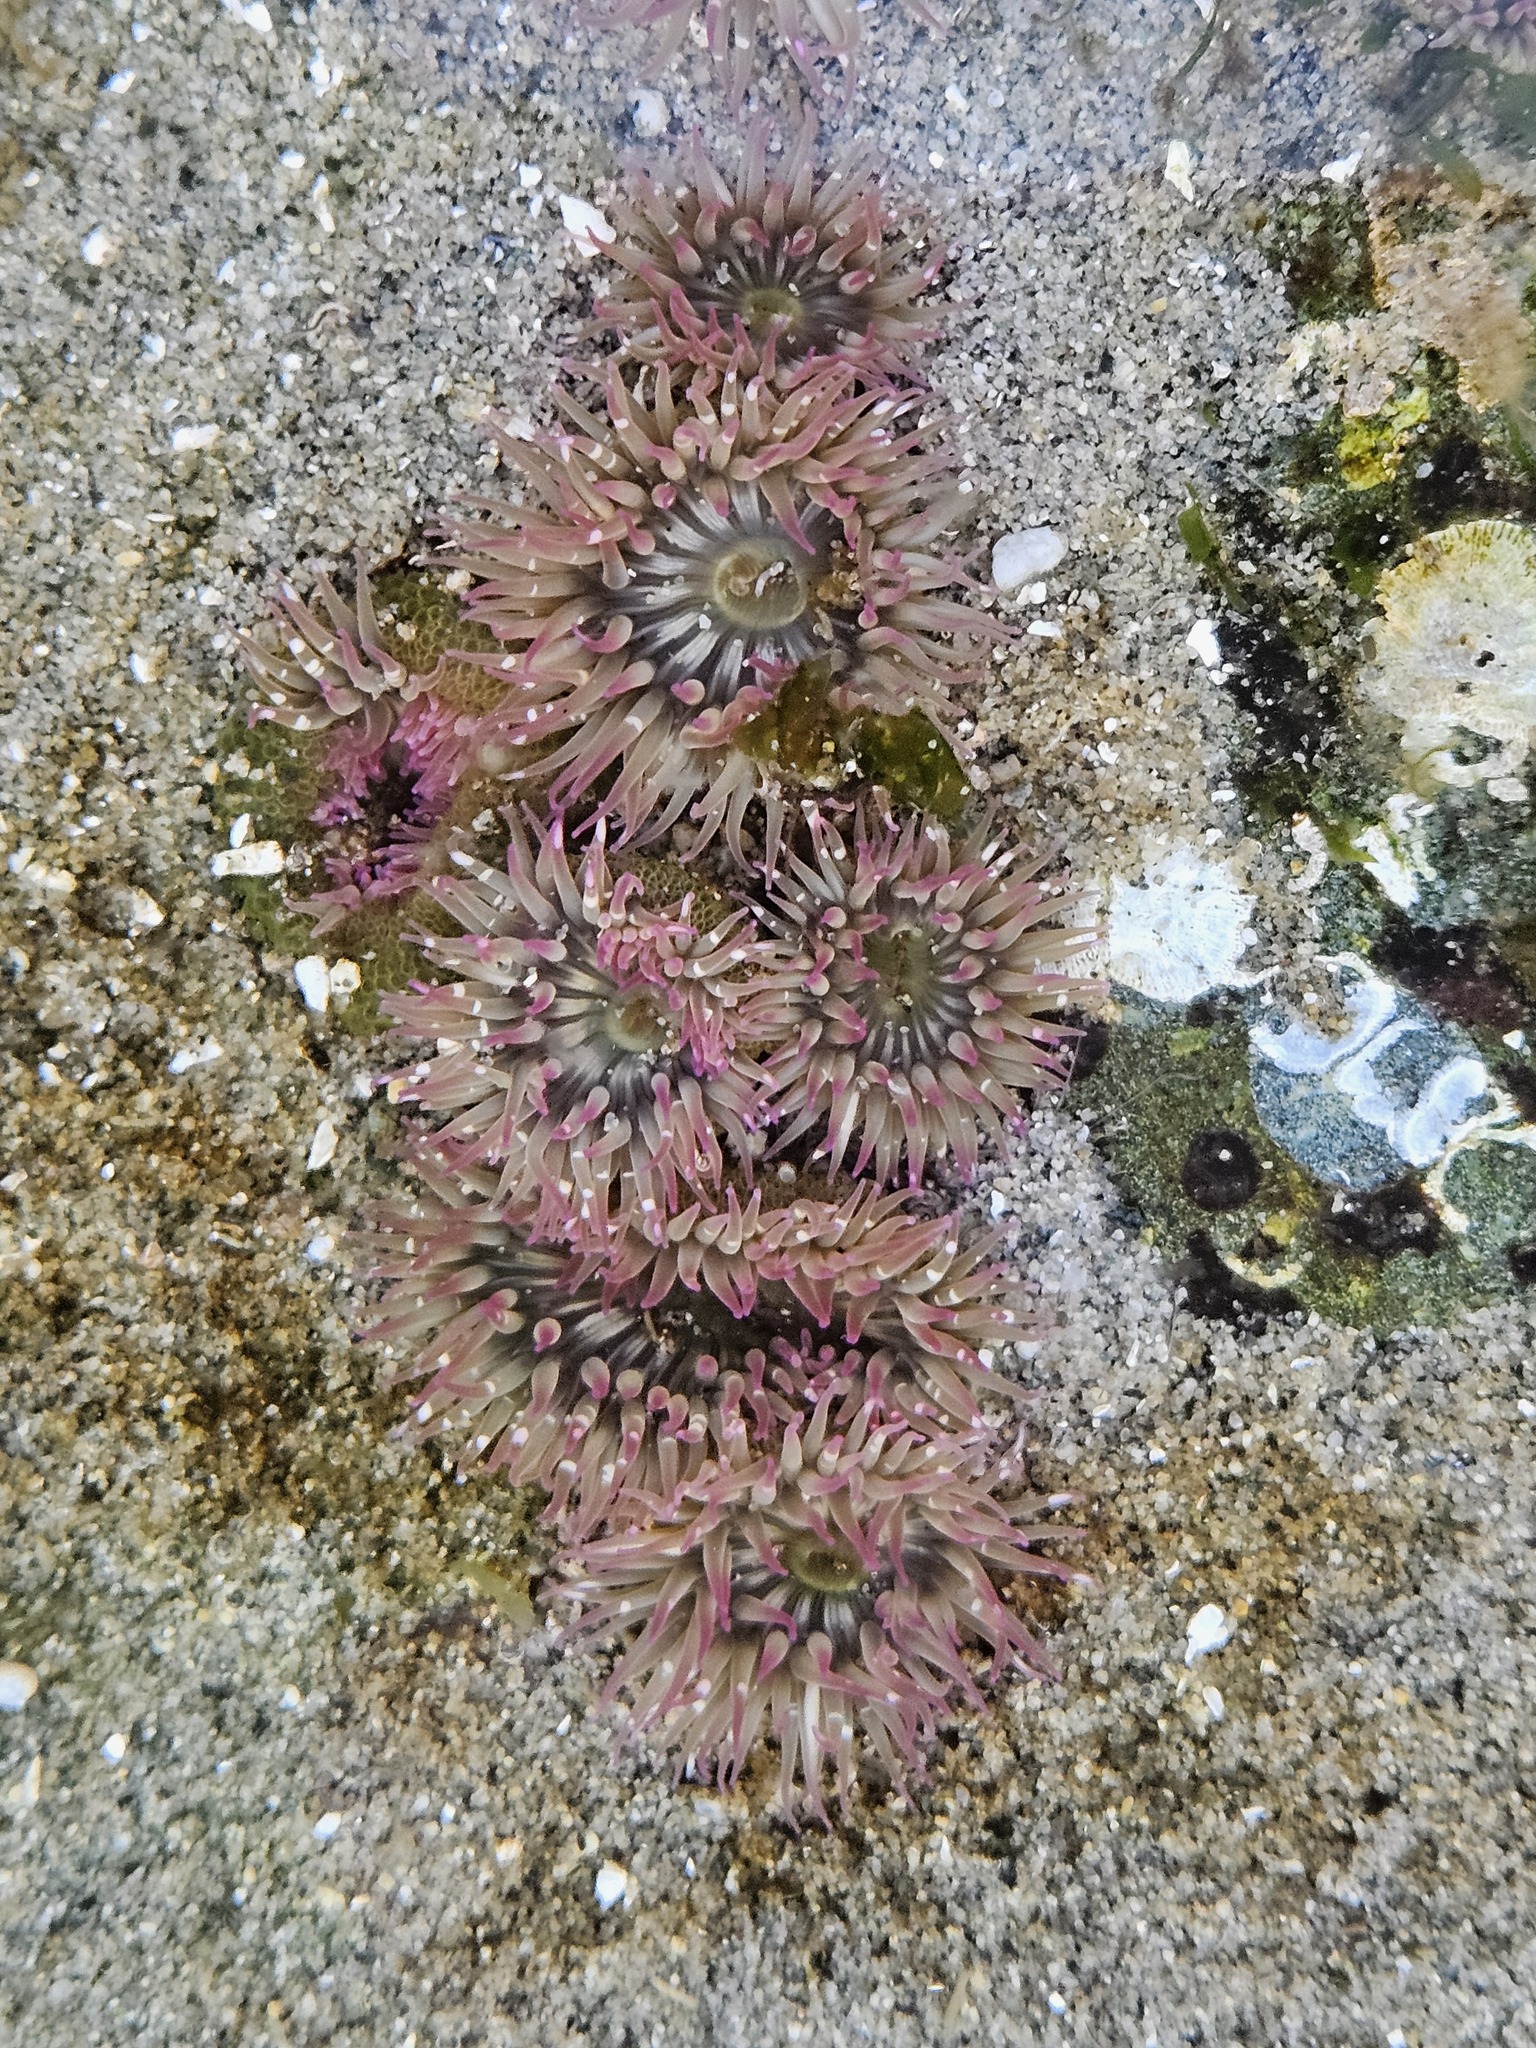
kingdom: Animalia
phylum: Cnidaria
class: Anthozoa
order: Actiniaria
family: Actiniidae
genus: Anthopleura
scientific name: Anthopleura elegantissima
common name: Clonal anemone
